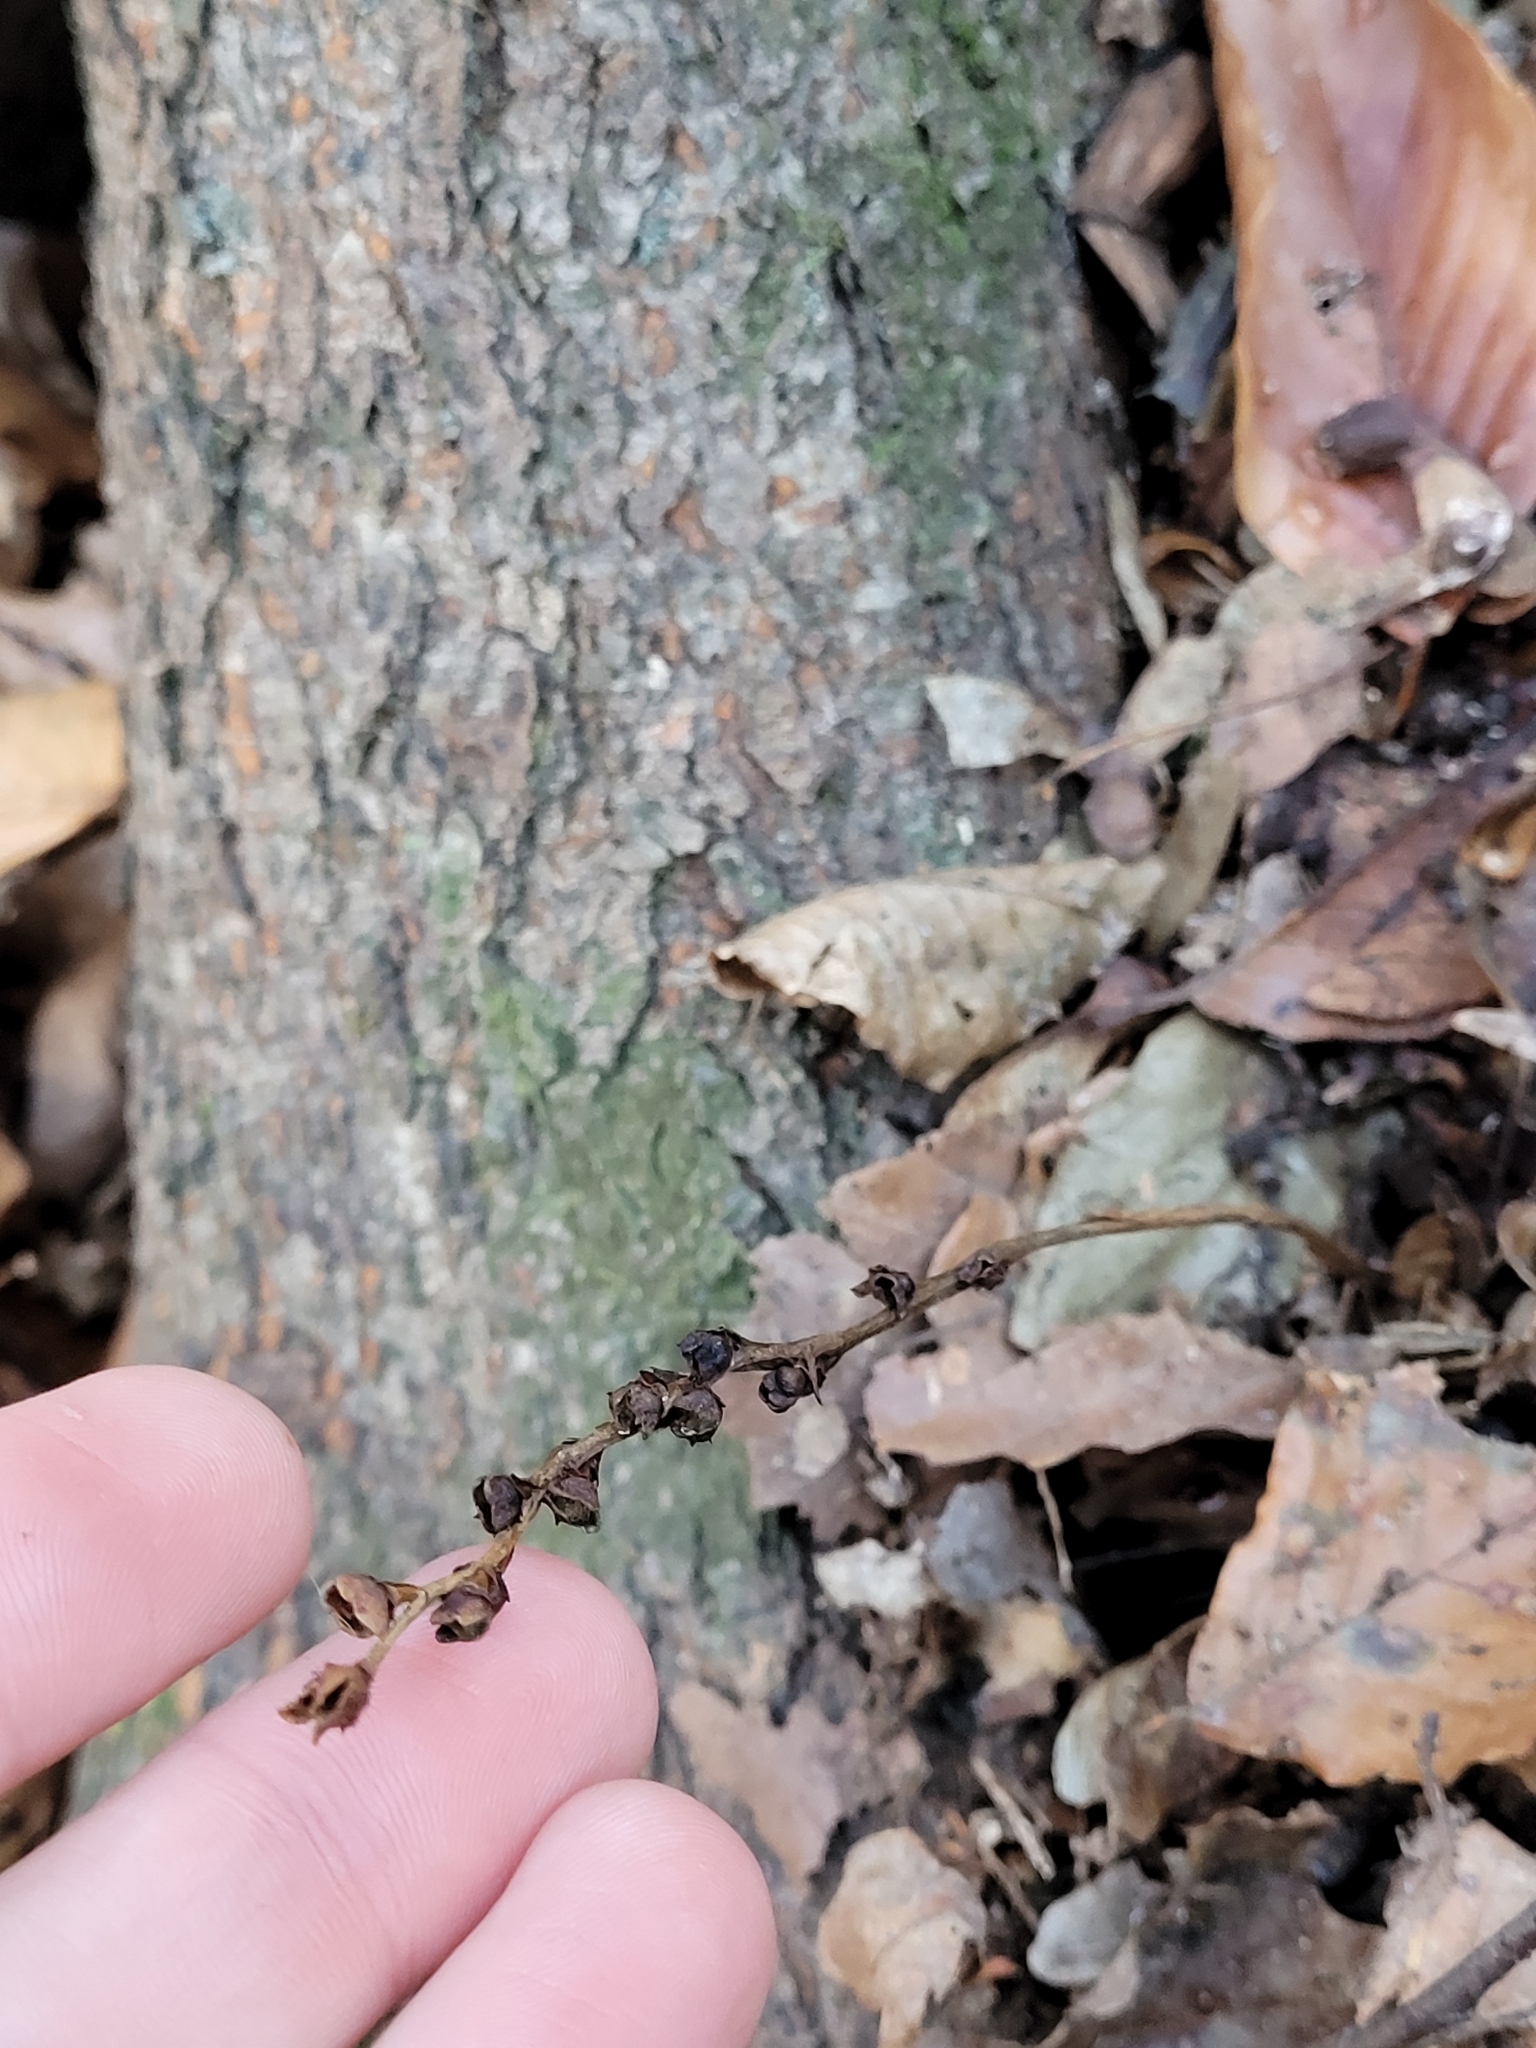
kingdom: Plantae
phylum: Tracheophyta
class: Magnoliopsida
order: Lamiales
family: Orobanchaceae
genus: Epifagus
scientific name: Epifagus virginiana
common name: Beechdrops
